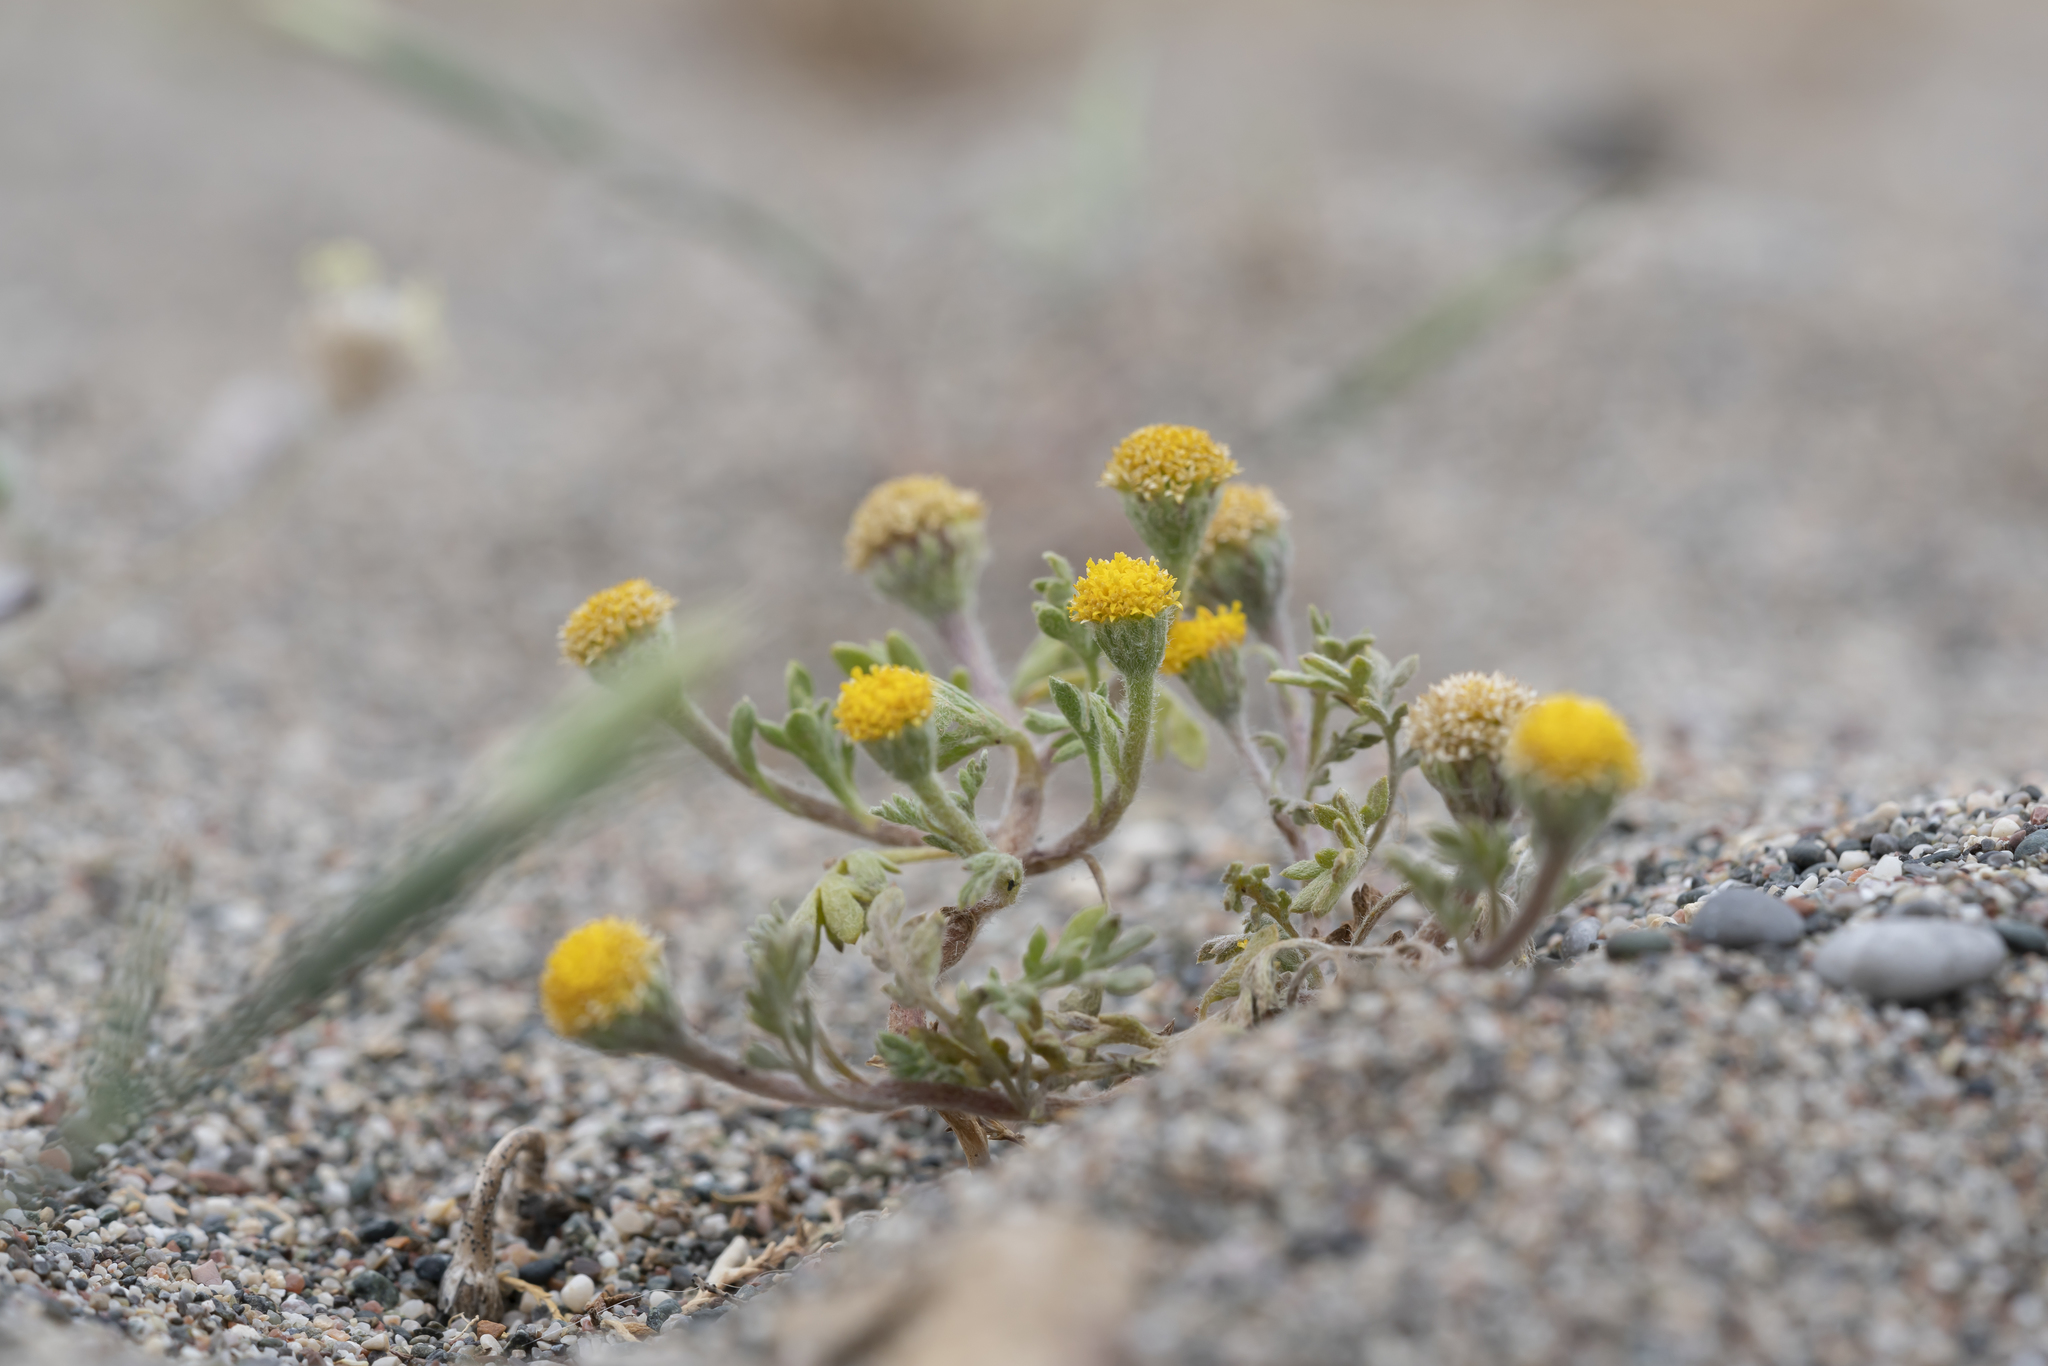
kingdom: Plantae
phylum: Tracheophyta
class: Magnoliopsida
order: Asterales
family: Asteraceae
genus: Anthemis
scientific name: Anthemis rigida
